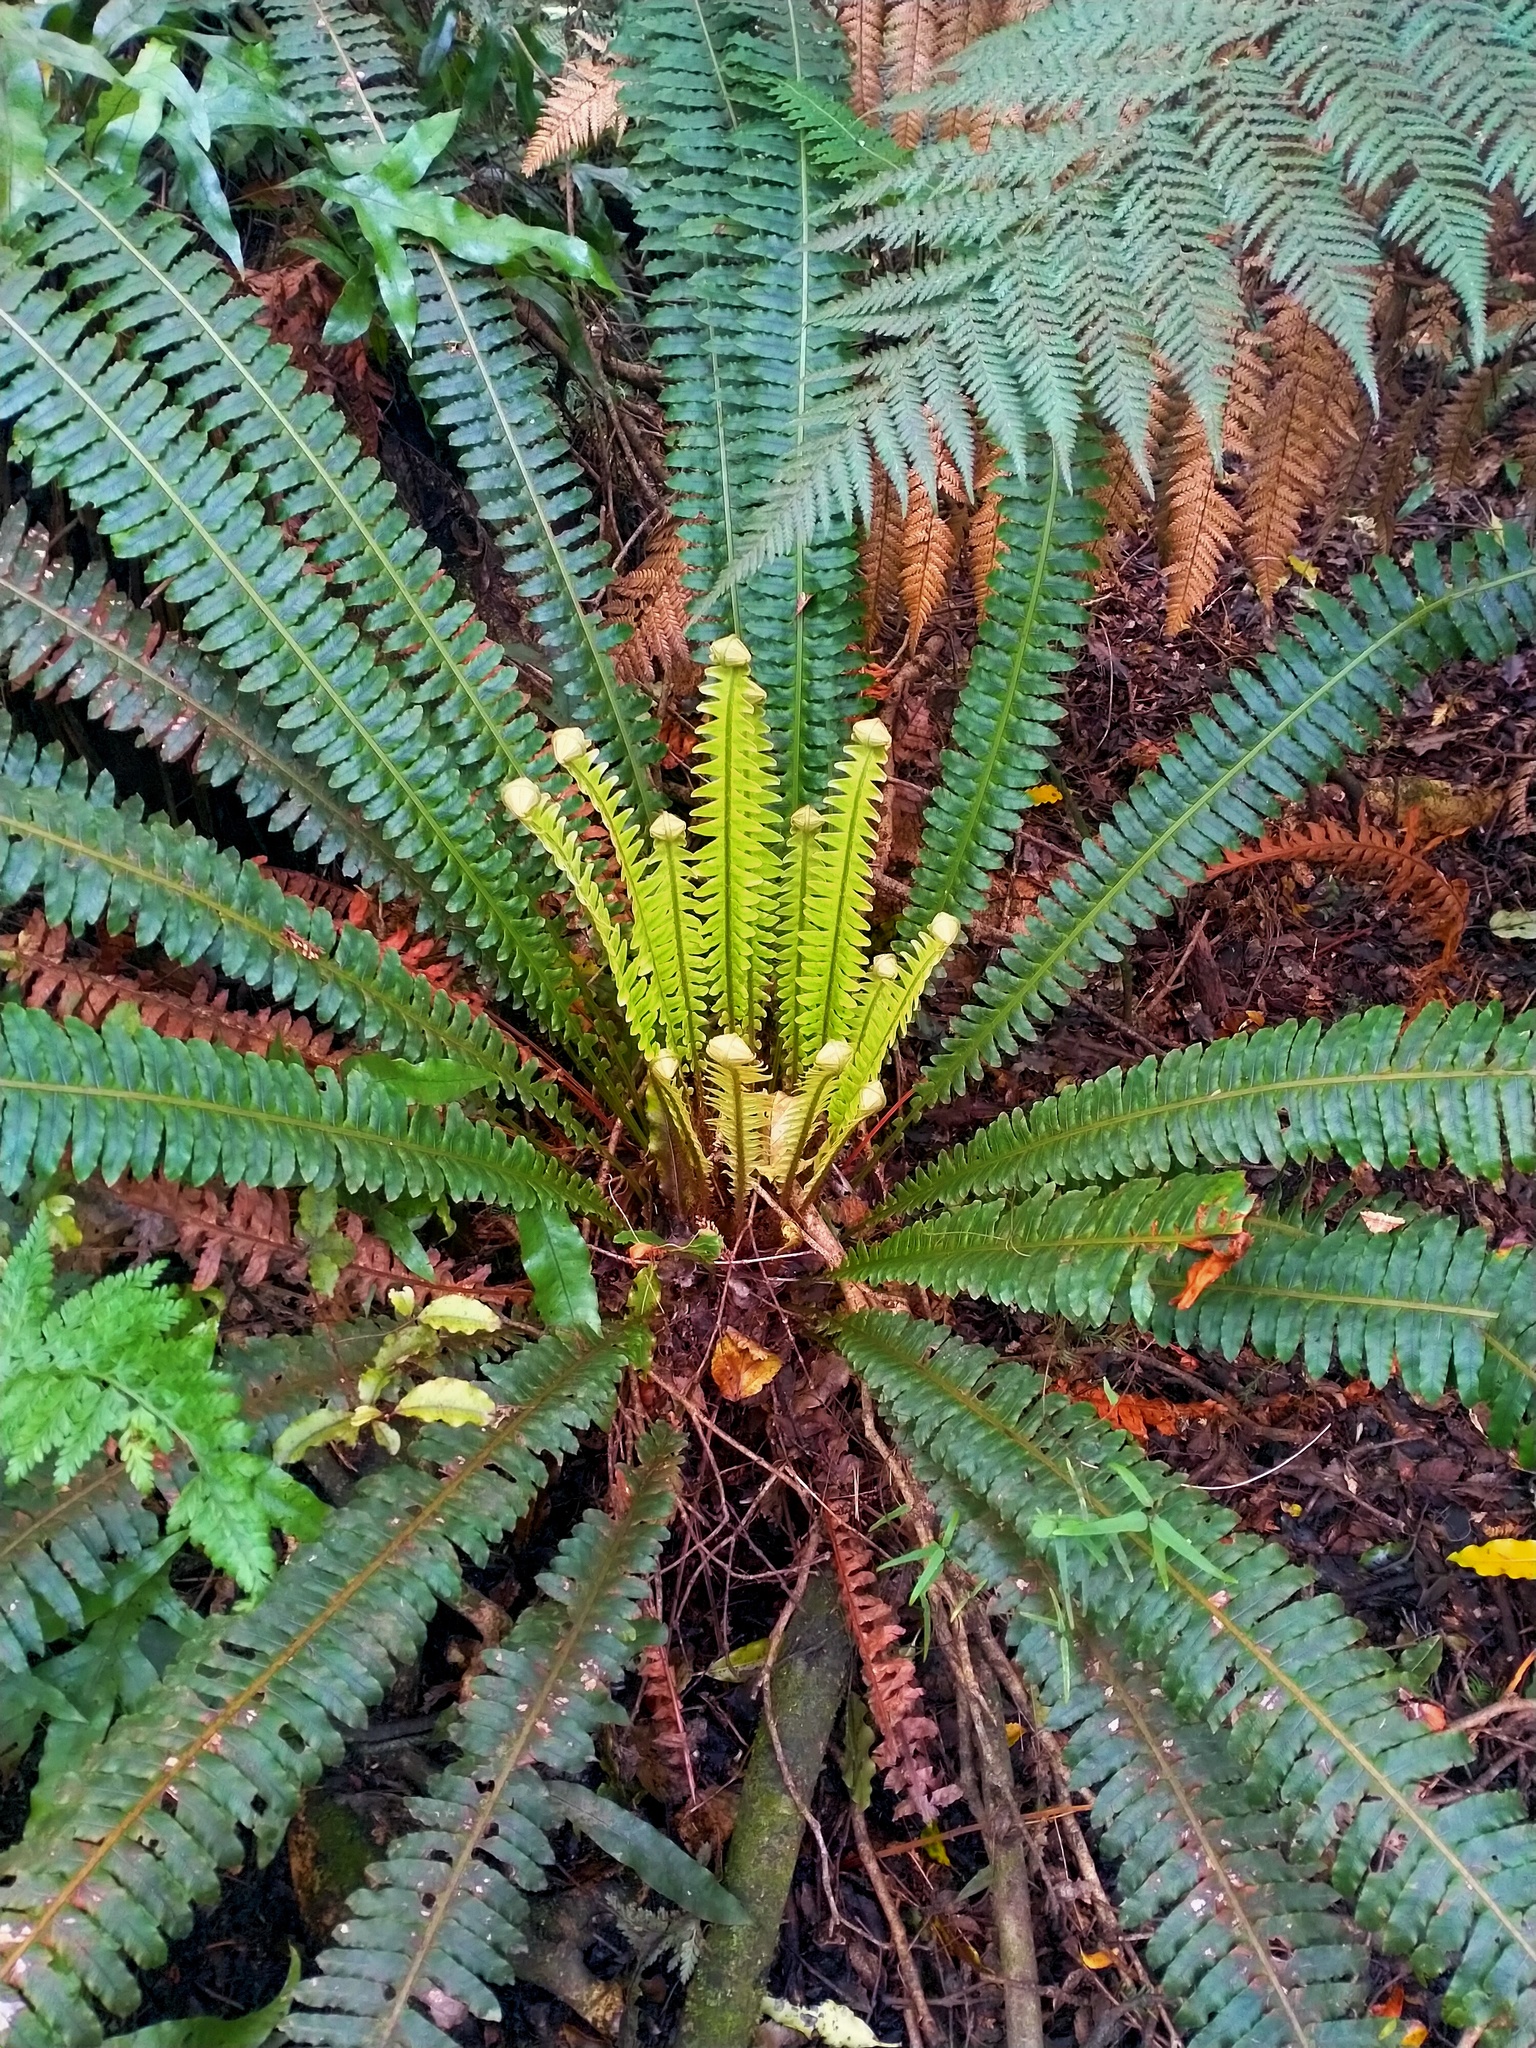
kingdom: Plantae
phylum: Tracheophyta
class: Polypodiopsida
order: Polypodiales
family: Blechnaceae
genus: Lomaria
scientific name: Lomaria discolor
